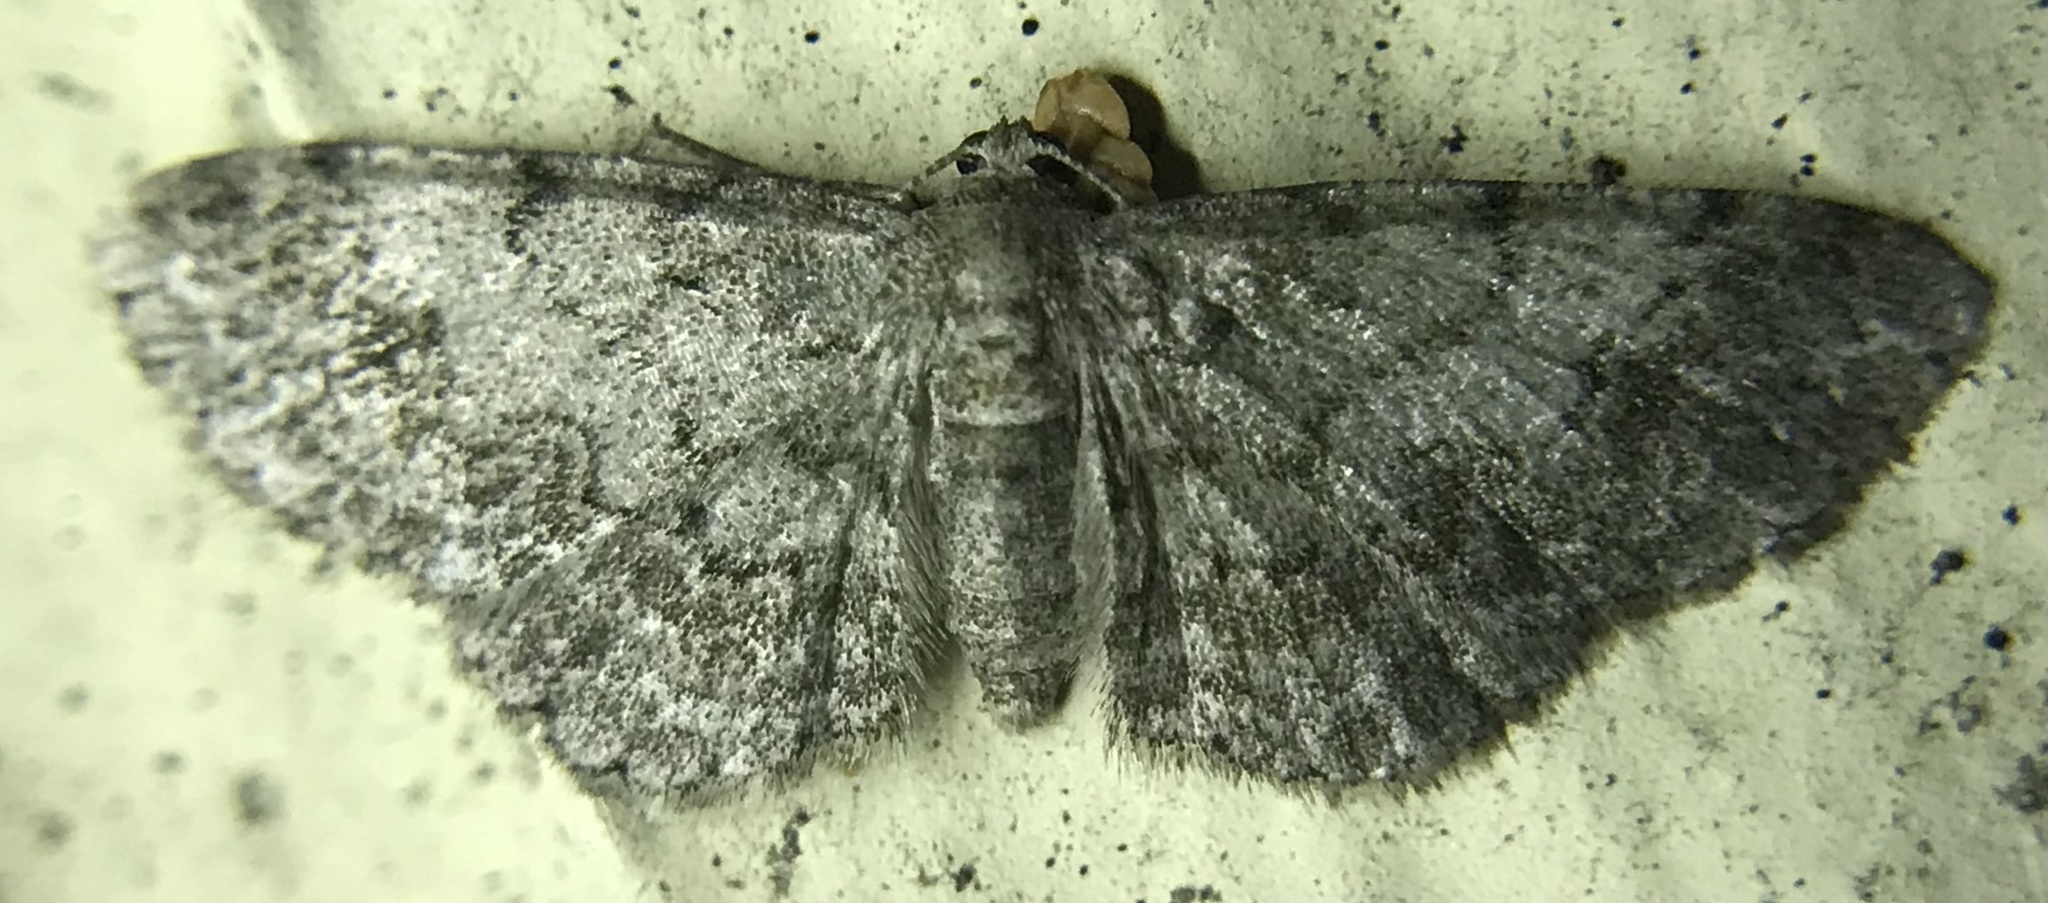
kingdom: Animalia
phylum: Arthropoda
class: Insecta
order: Lepidoptera
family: Geometridae
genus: Glenoides
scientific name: Glenoides texanaria
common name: Texas gray
